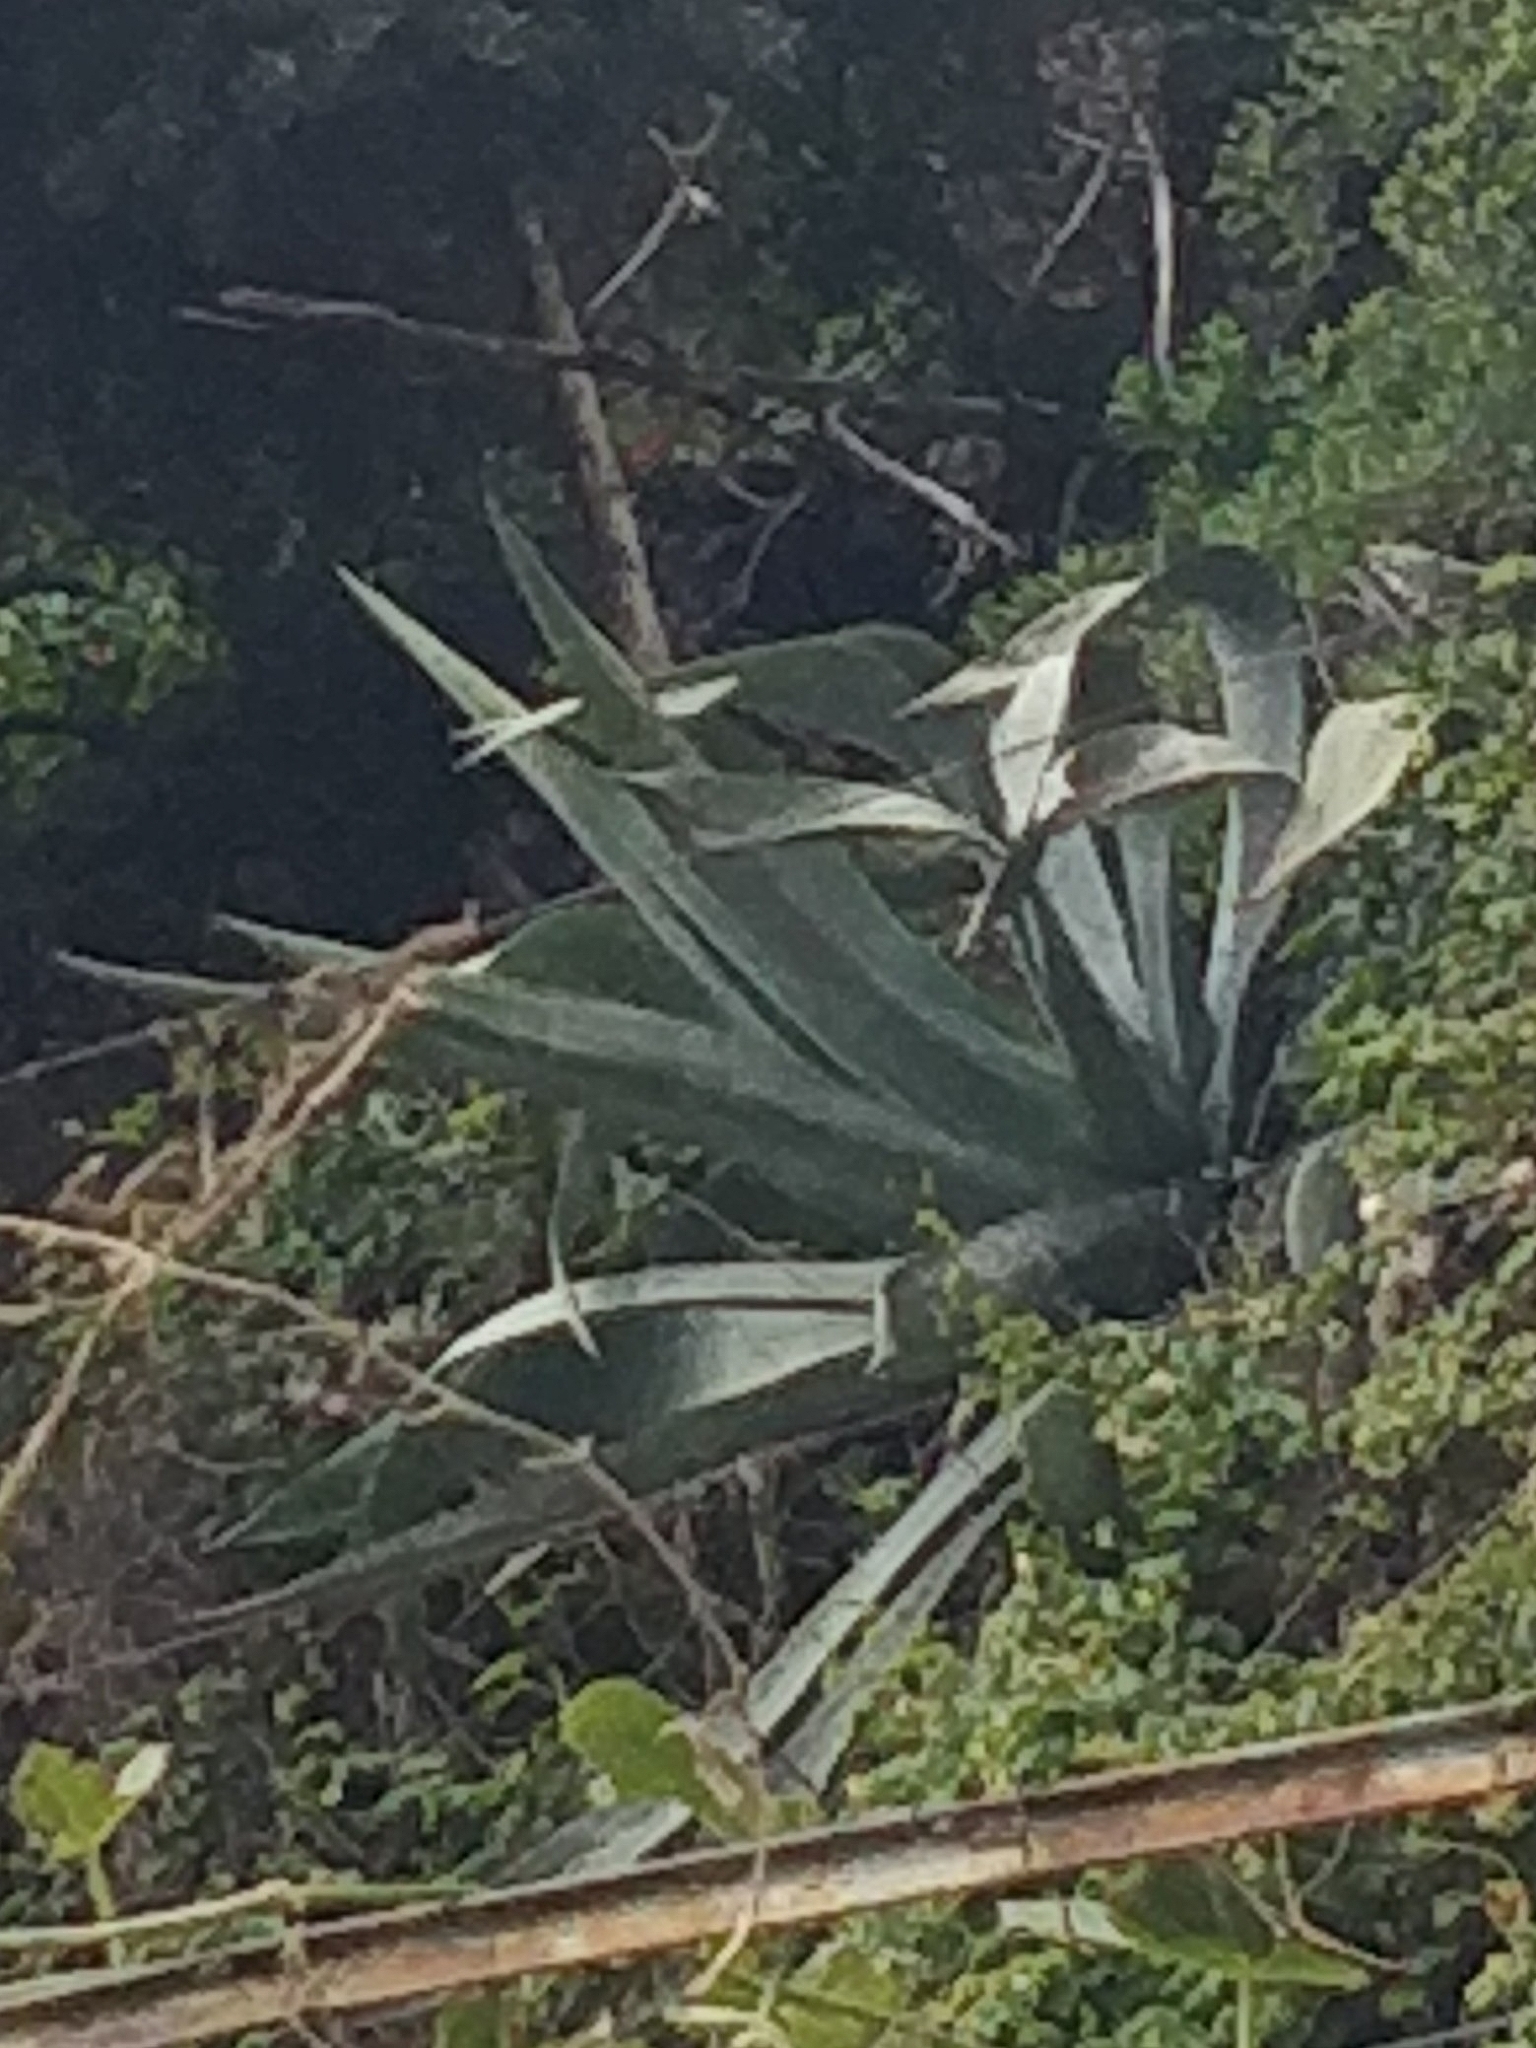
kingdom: Plantae
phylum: Tracheophyta
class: Liliopsida
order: Asparagales
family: Asparagaceae
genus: Agave
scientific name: Agave americana
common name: Centuryplant
